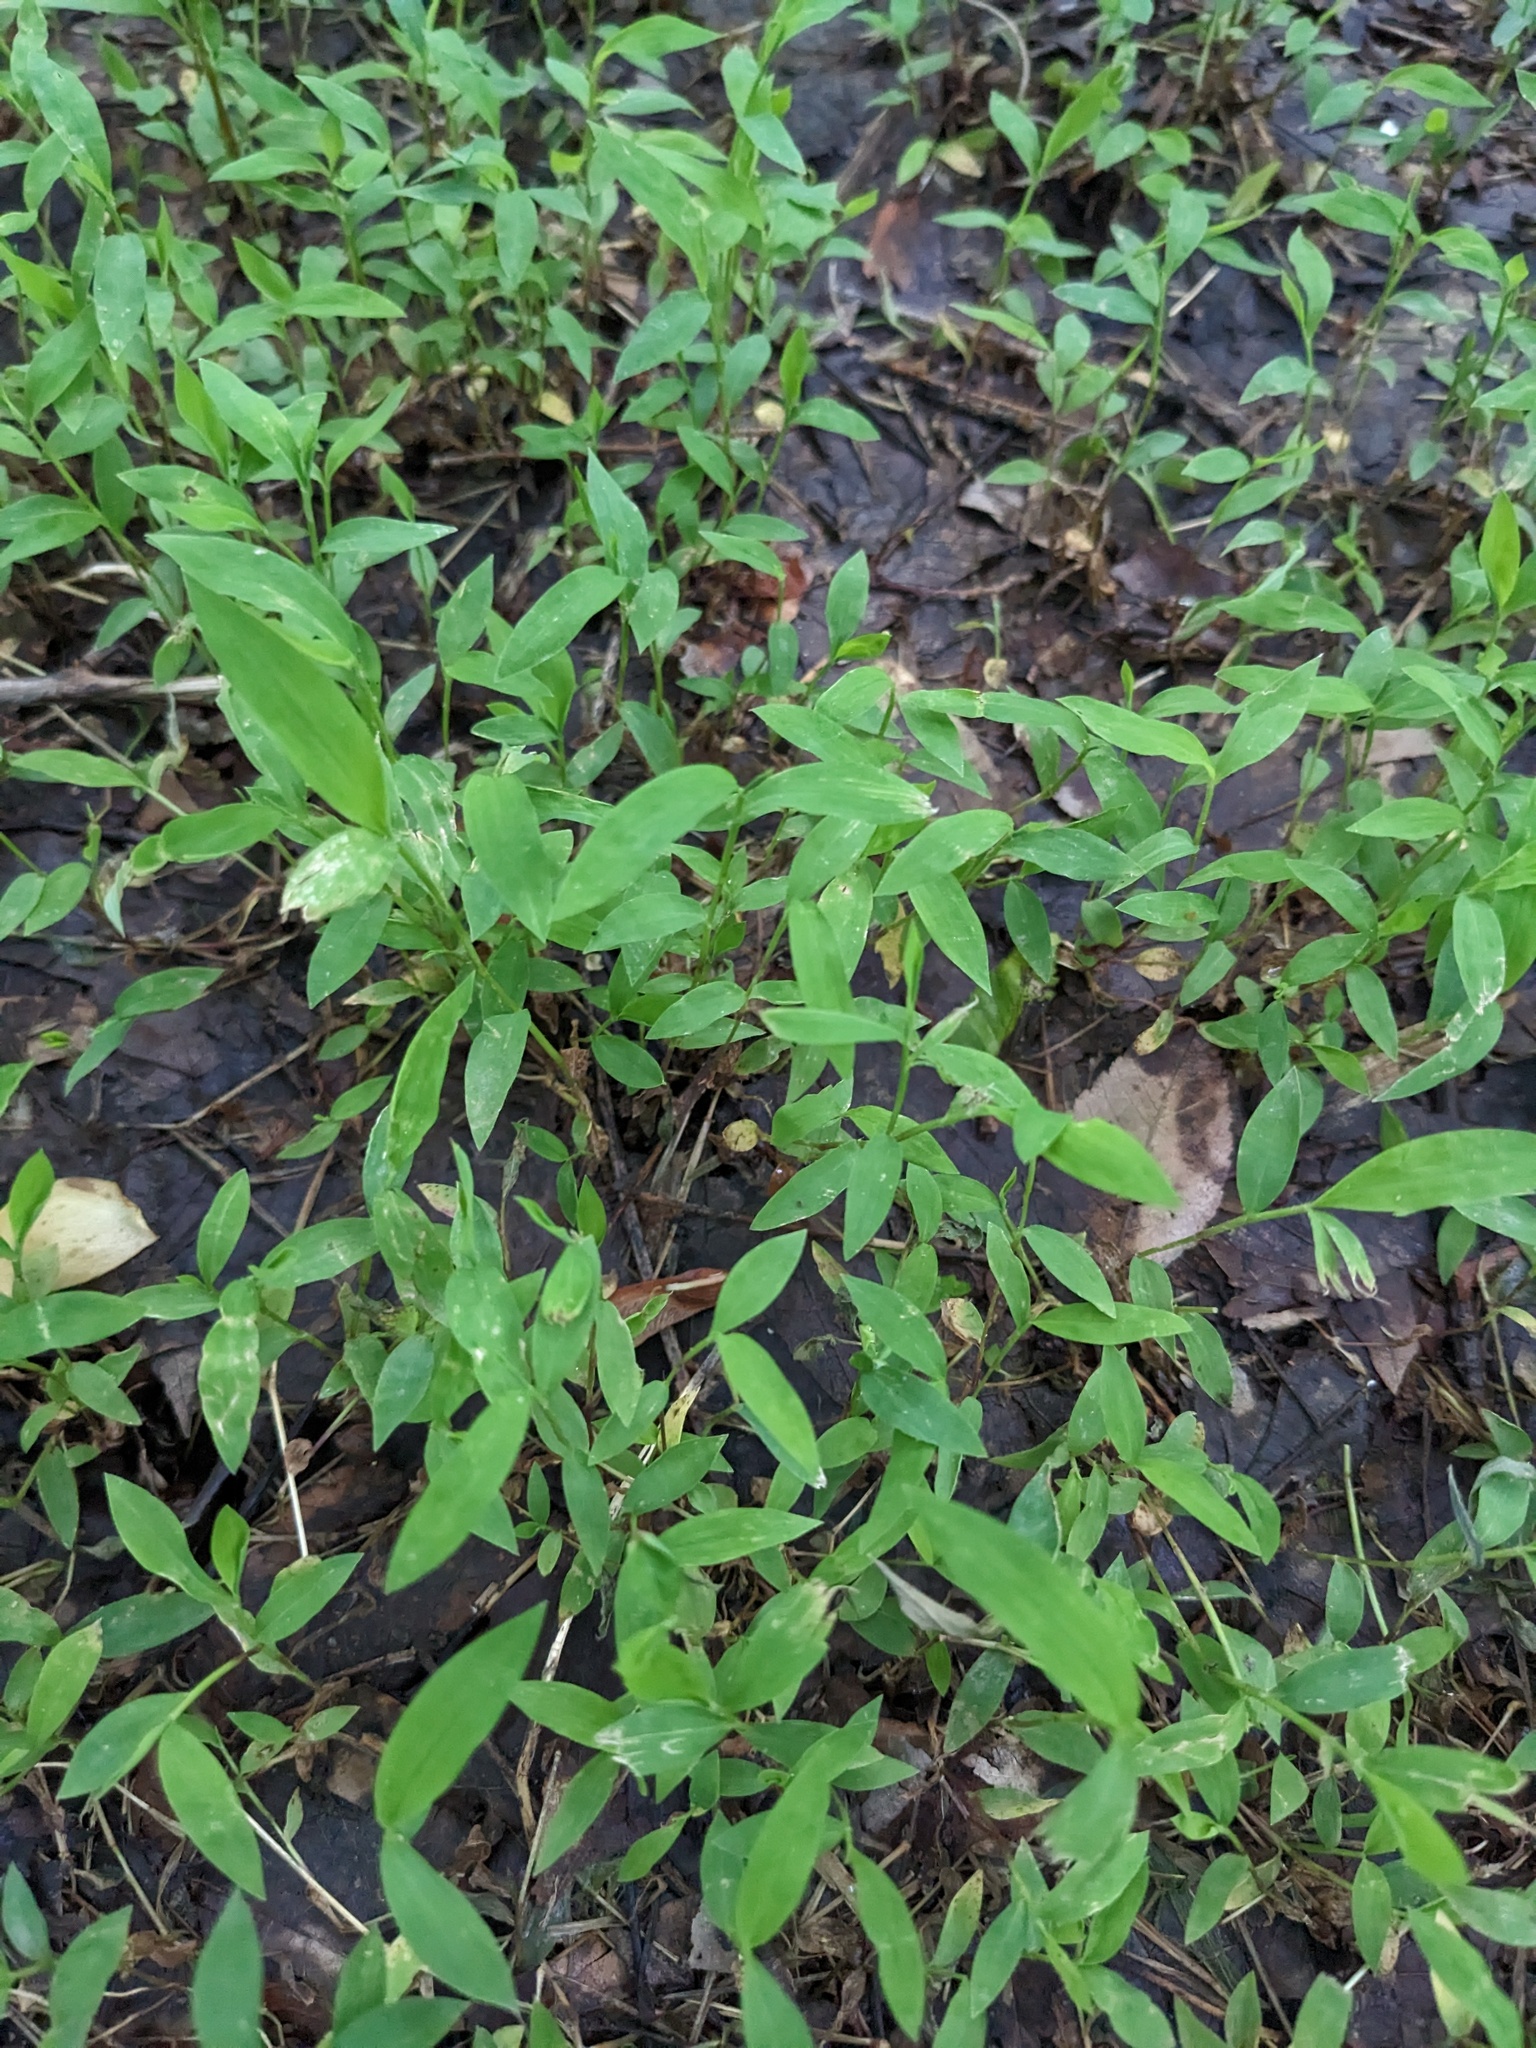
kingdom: Plantae
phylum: Tracheophyta
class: Liliopsida
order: Poales
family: Poaceae
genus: Microstegium
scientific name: Microstegium vimineum
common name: Japanese stiltgrass
